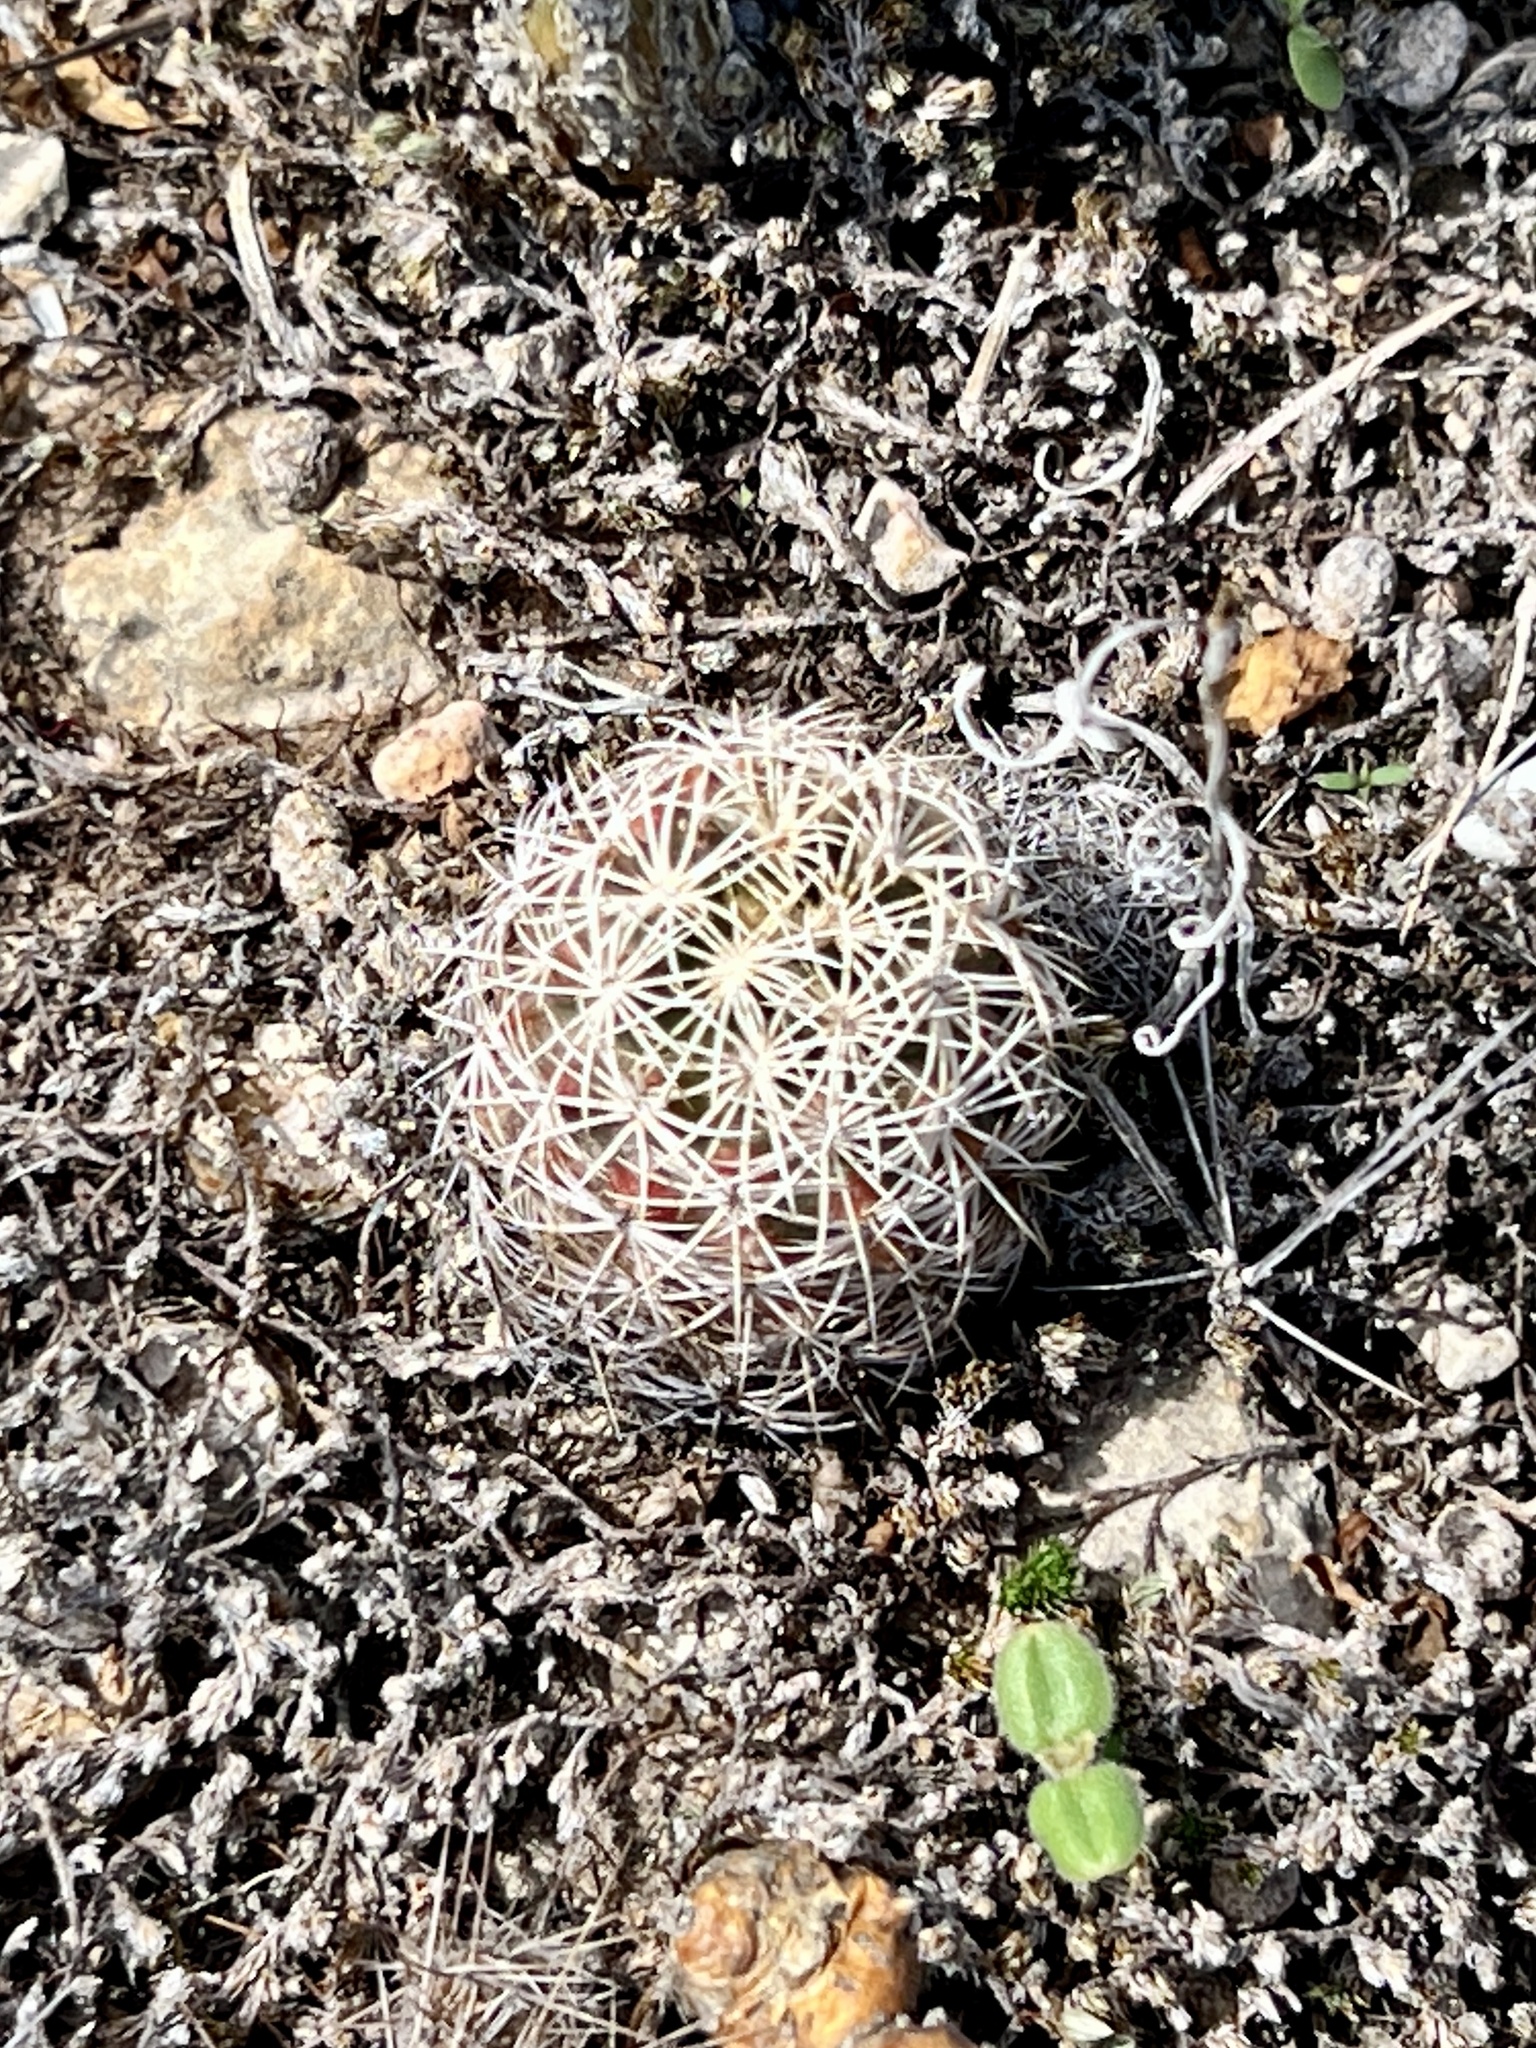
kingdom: Plantae
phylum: Tracheophyta
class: Magnoliopsida
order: Caryophyllales
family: Cactaceae
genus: Coryphantha
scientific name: Coryphantha echinus
